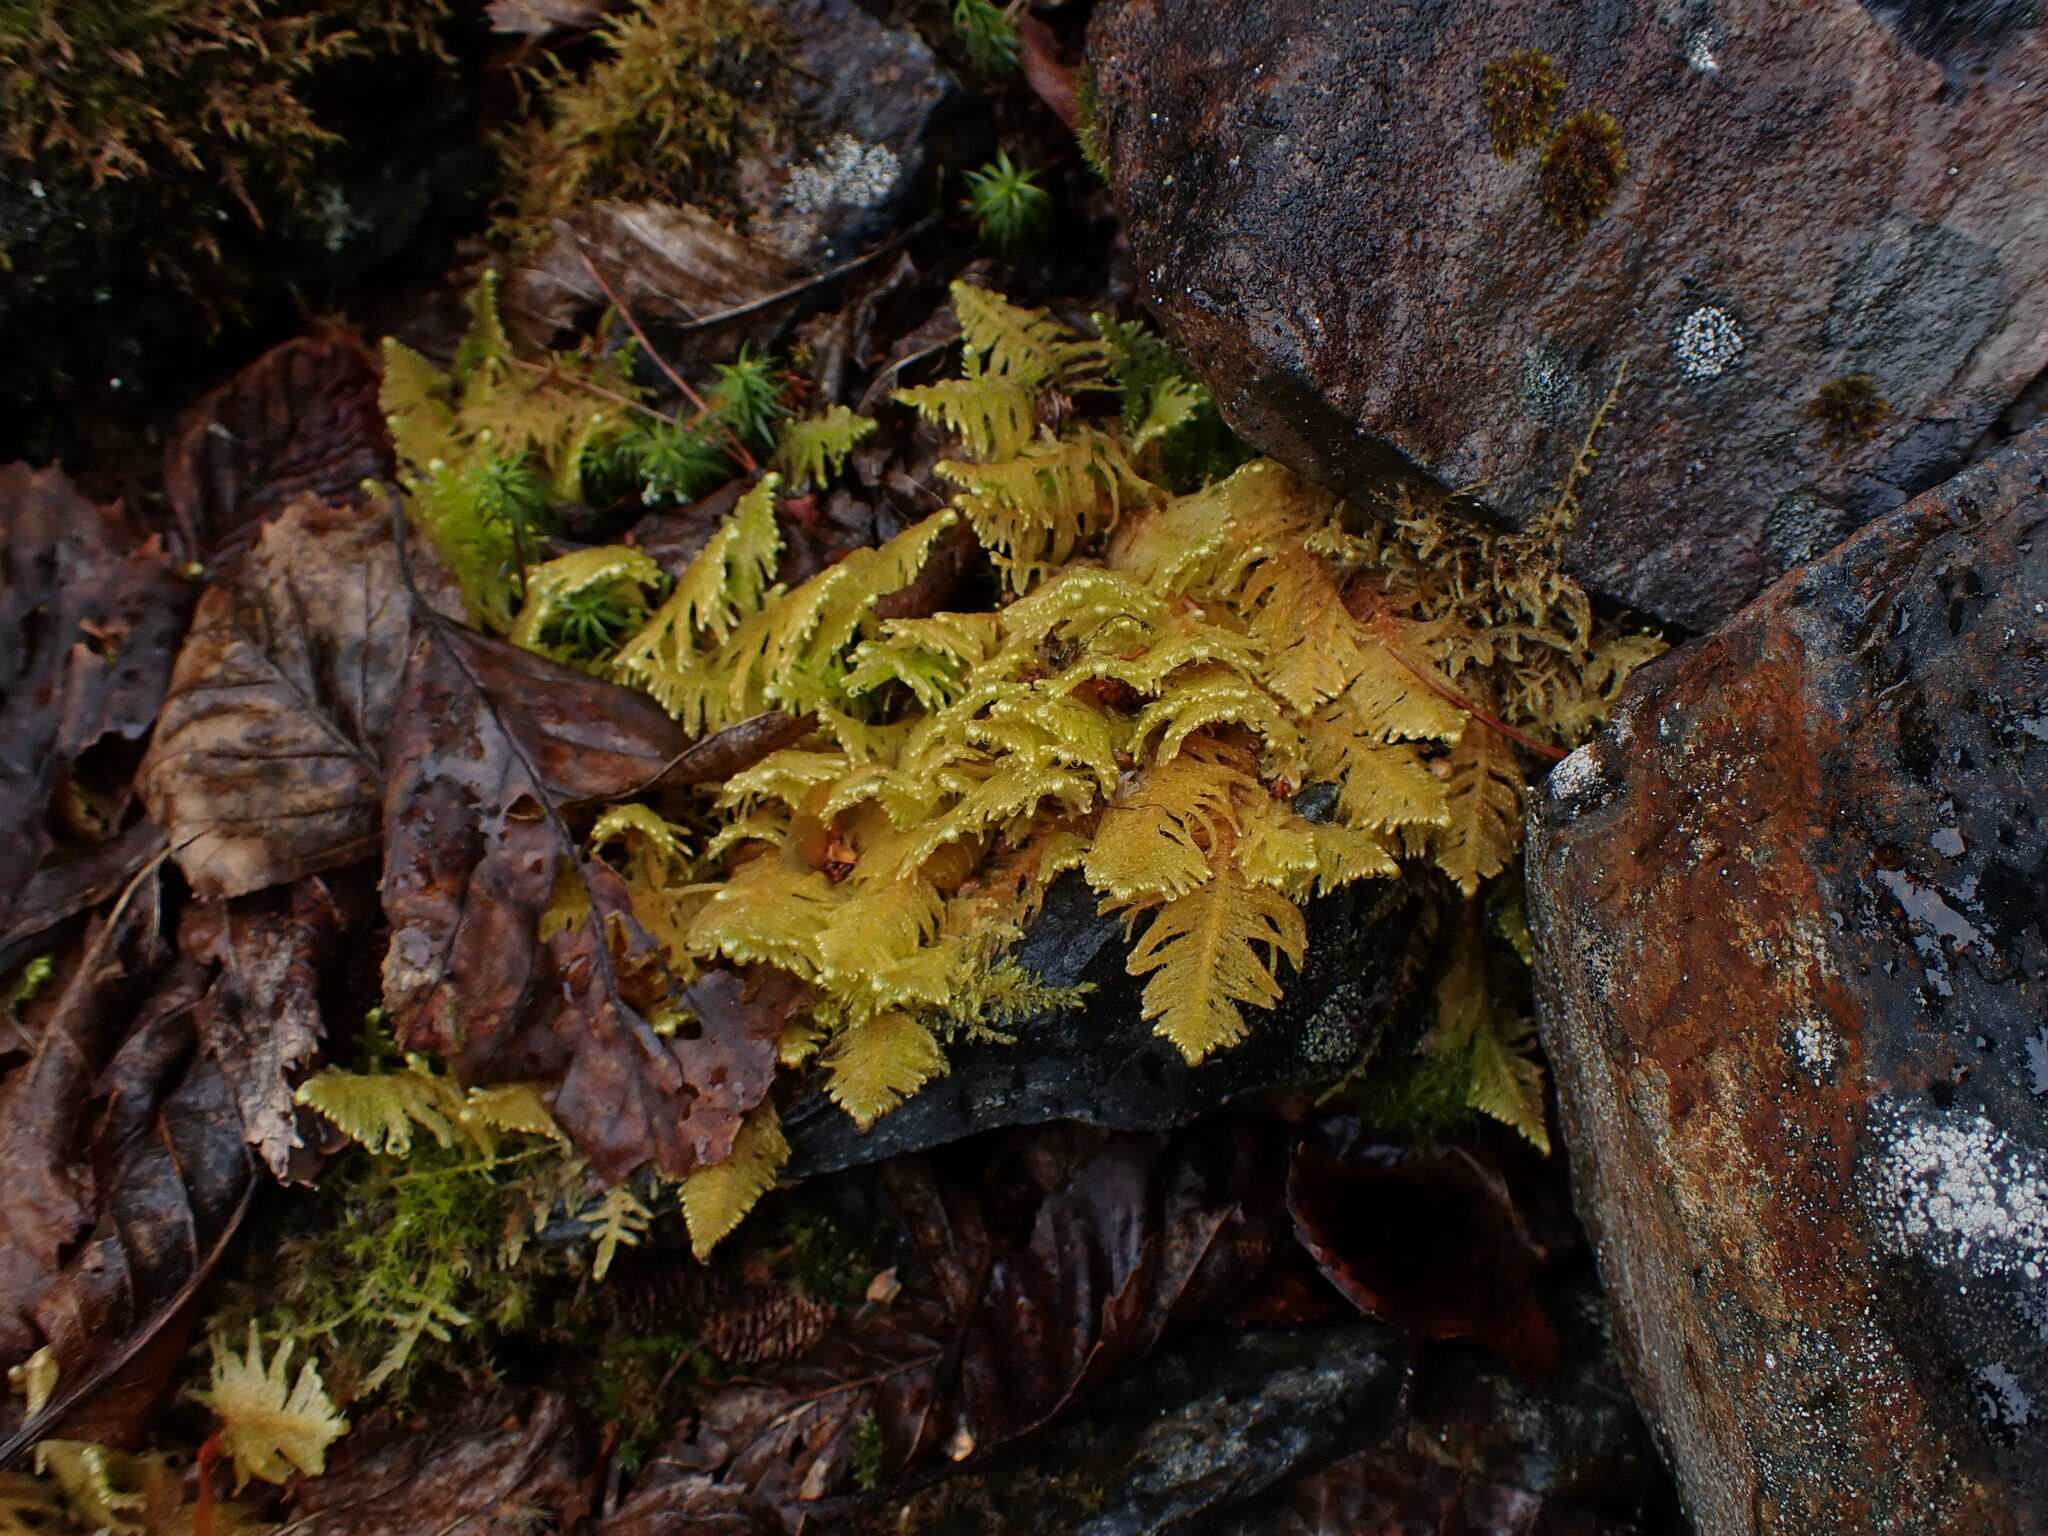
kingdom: Plantae
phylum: Bryophyta
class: Bryopsida
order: Hypnales
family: Pylaisiaceae
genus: Ptilium
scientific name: Ptilium crista-castrensis
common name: Knight's plume moss
